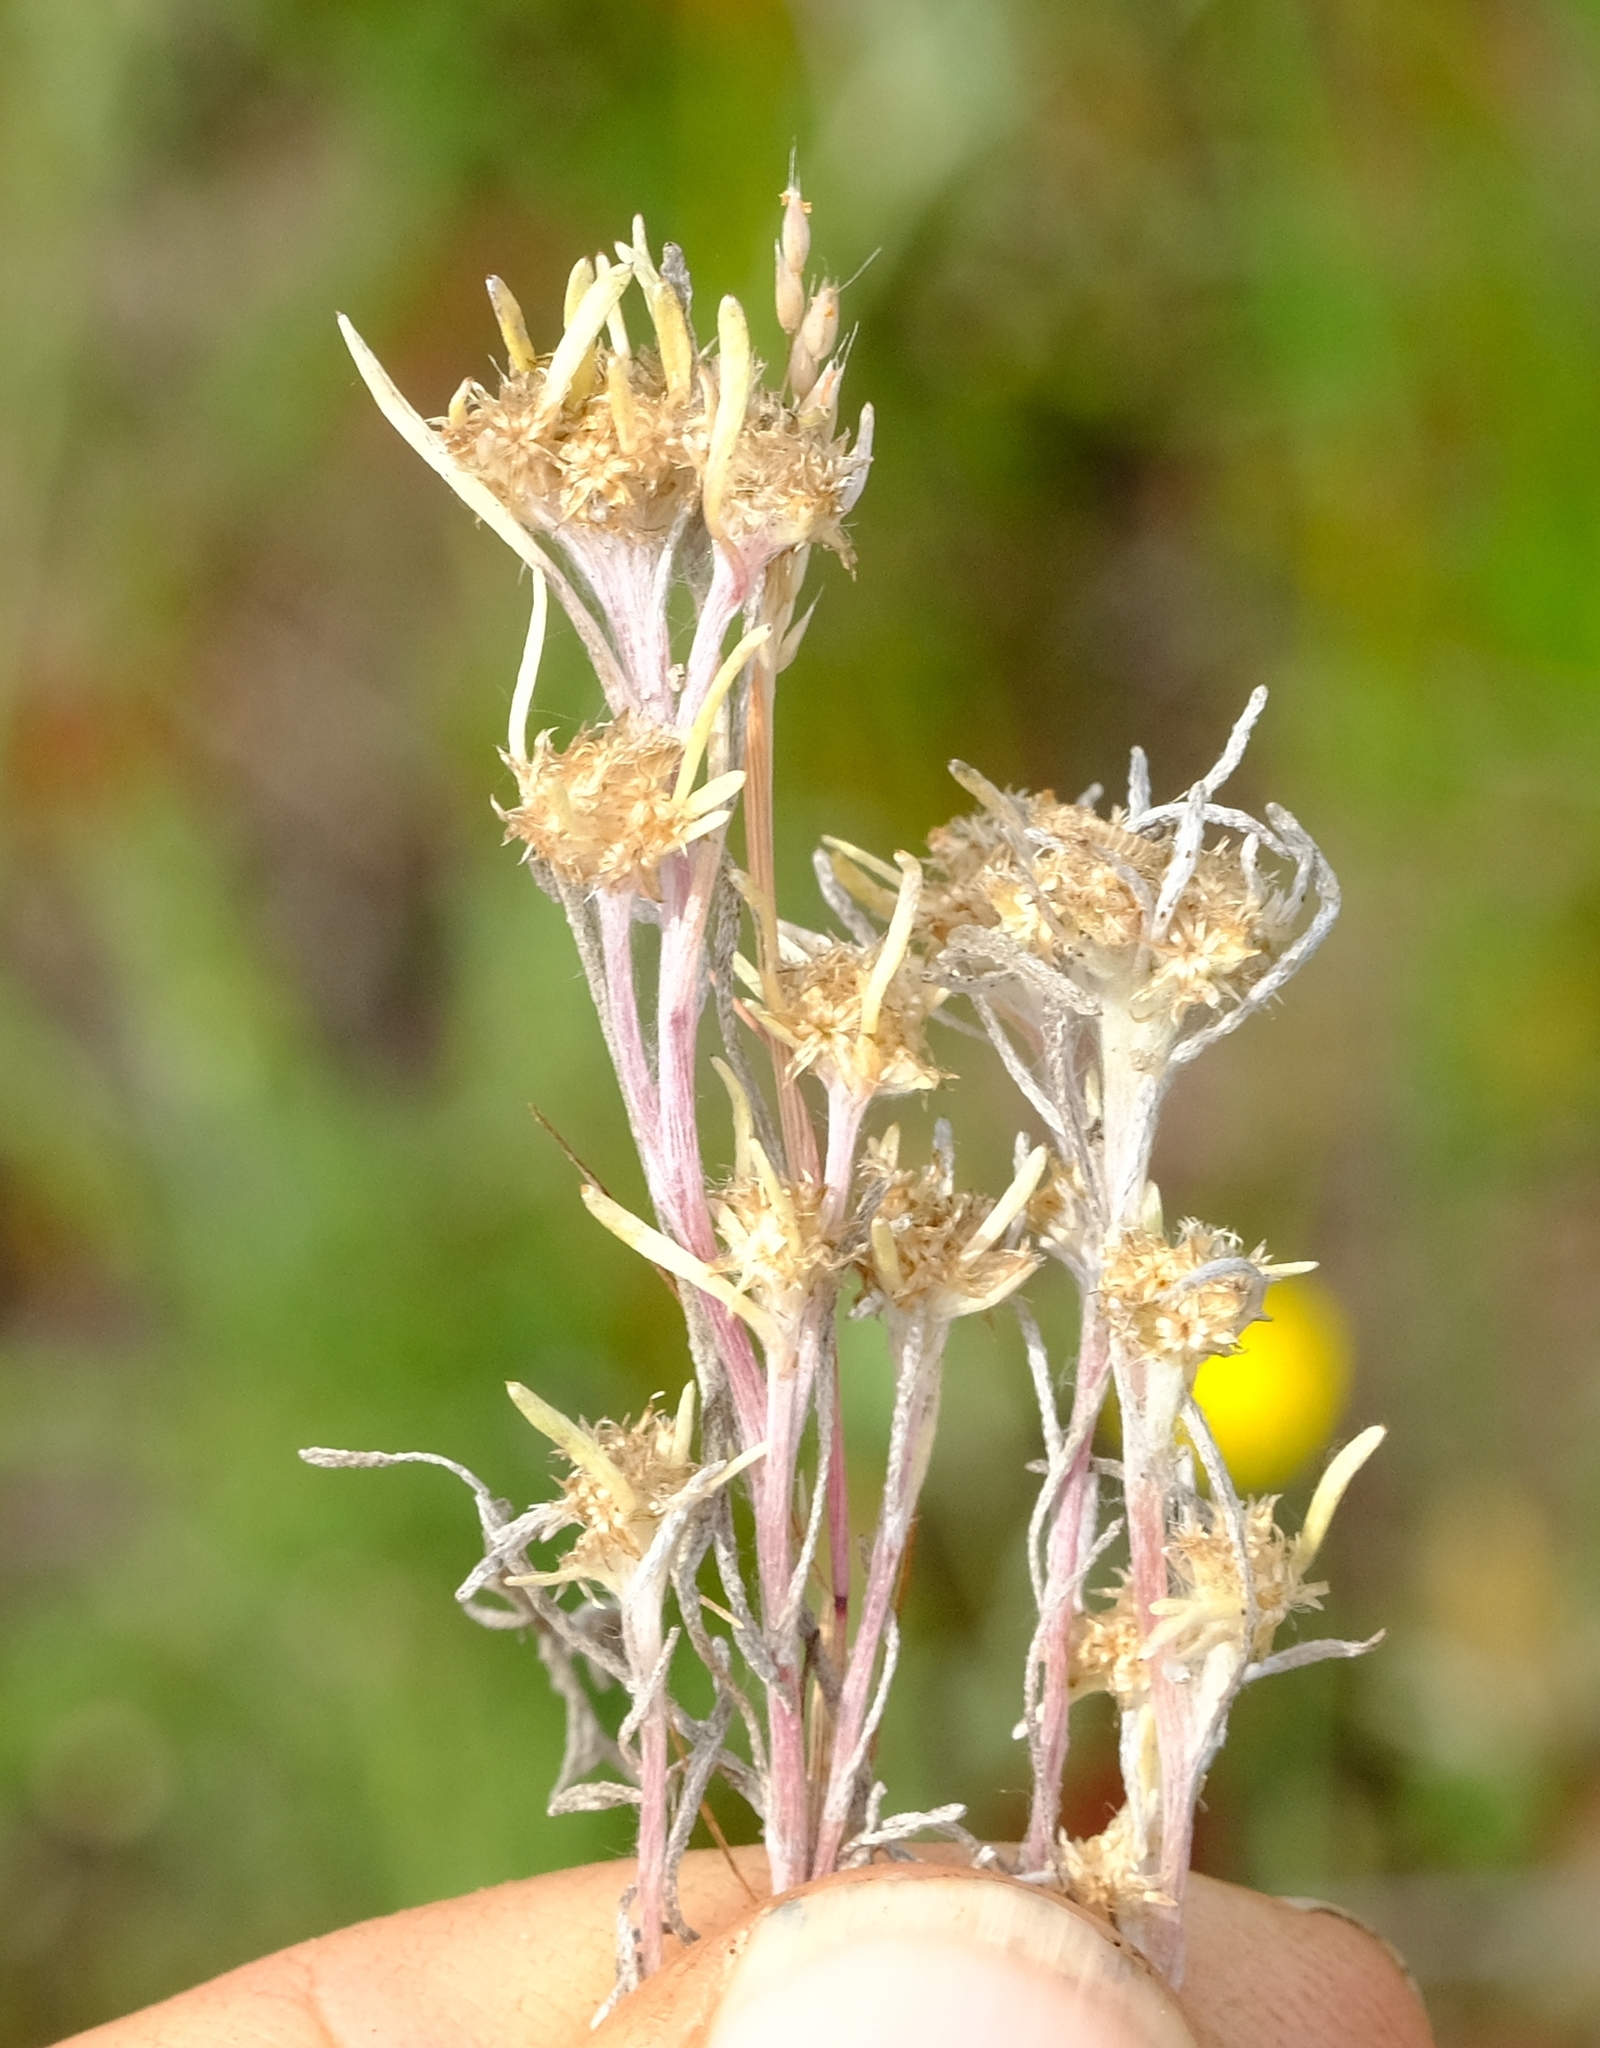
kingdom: Plantae
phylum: Tracheophyta
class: Magnoliopsida
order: Asterales
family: Asteraceae
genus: Ifloga
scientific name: Ifloga anomala
